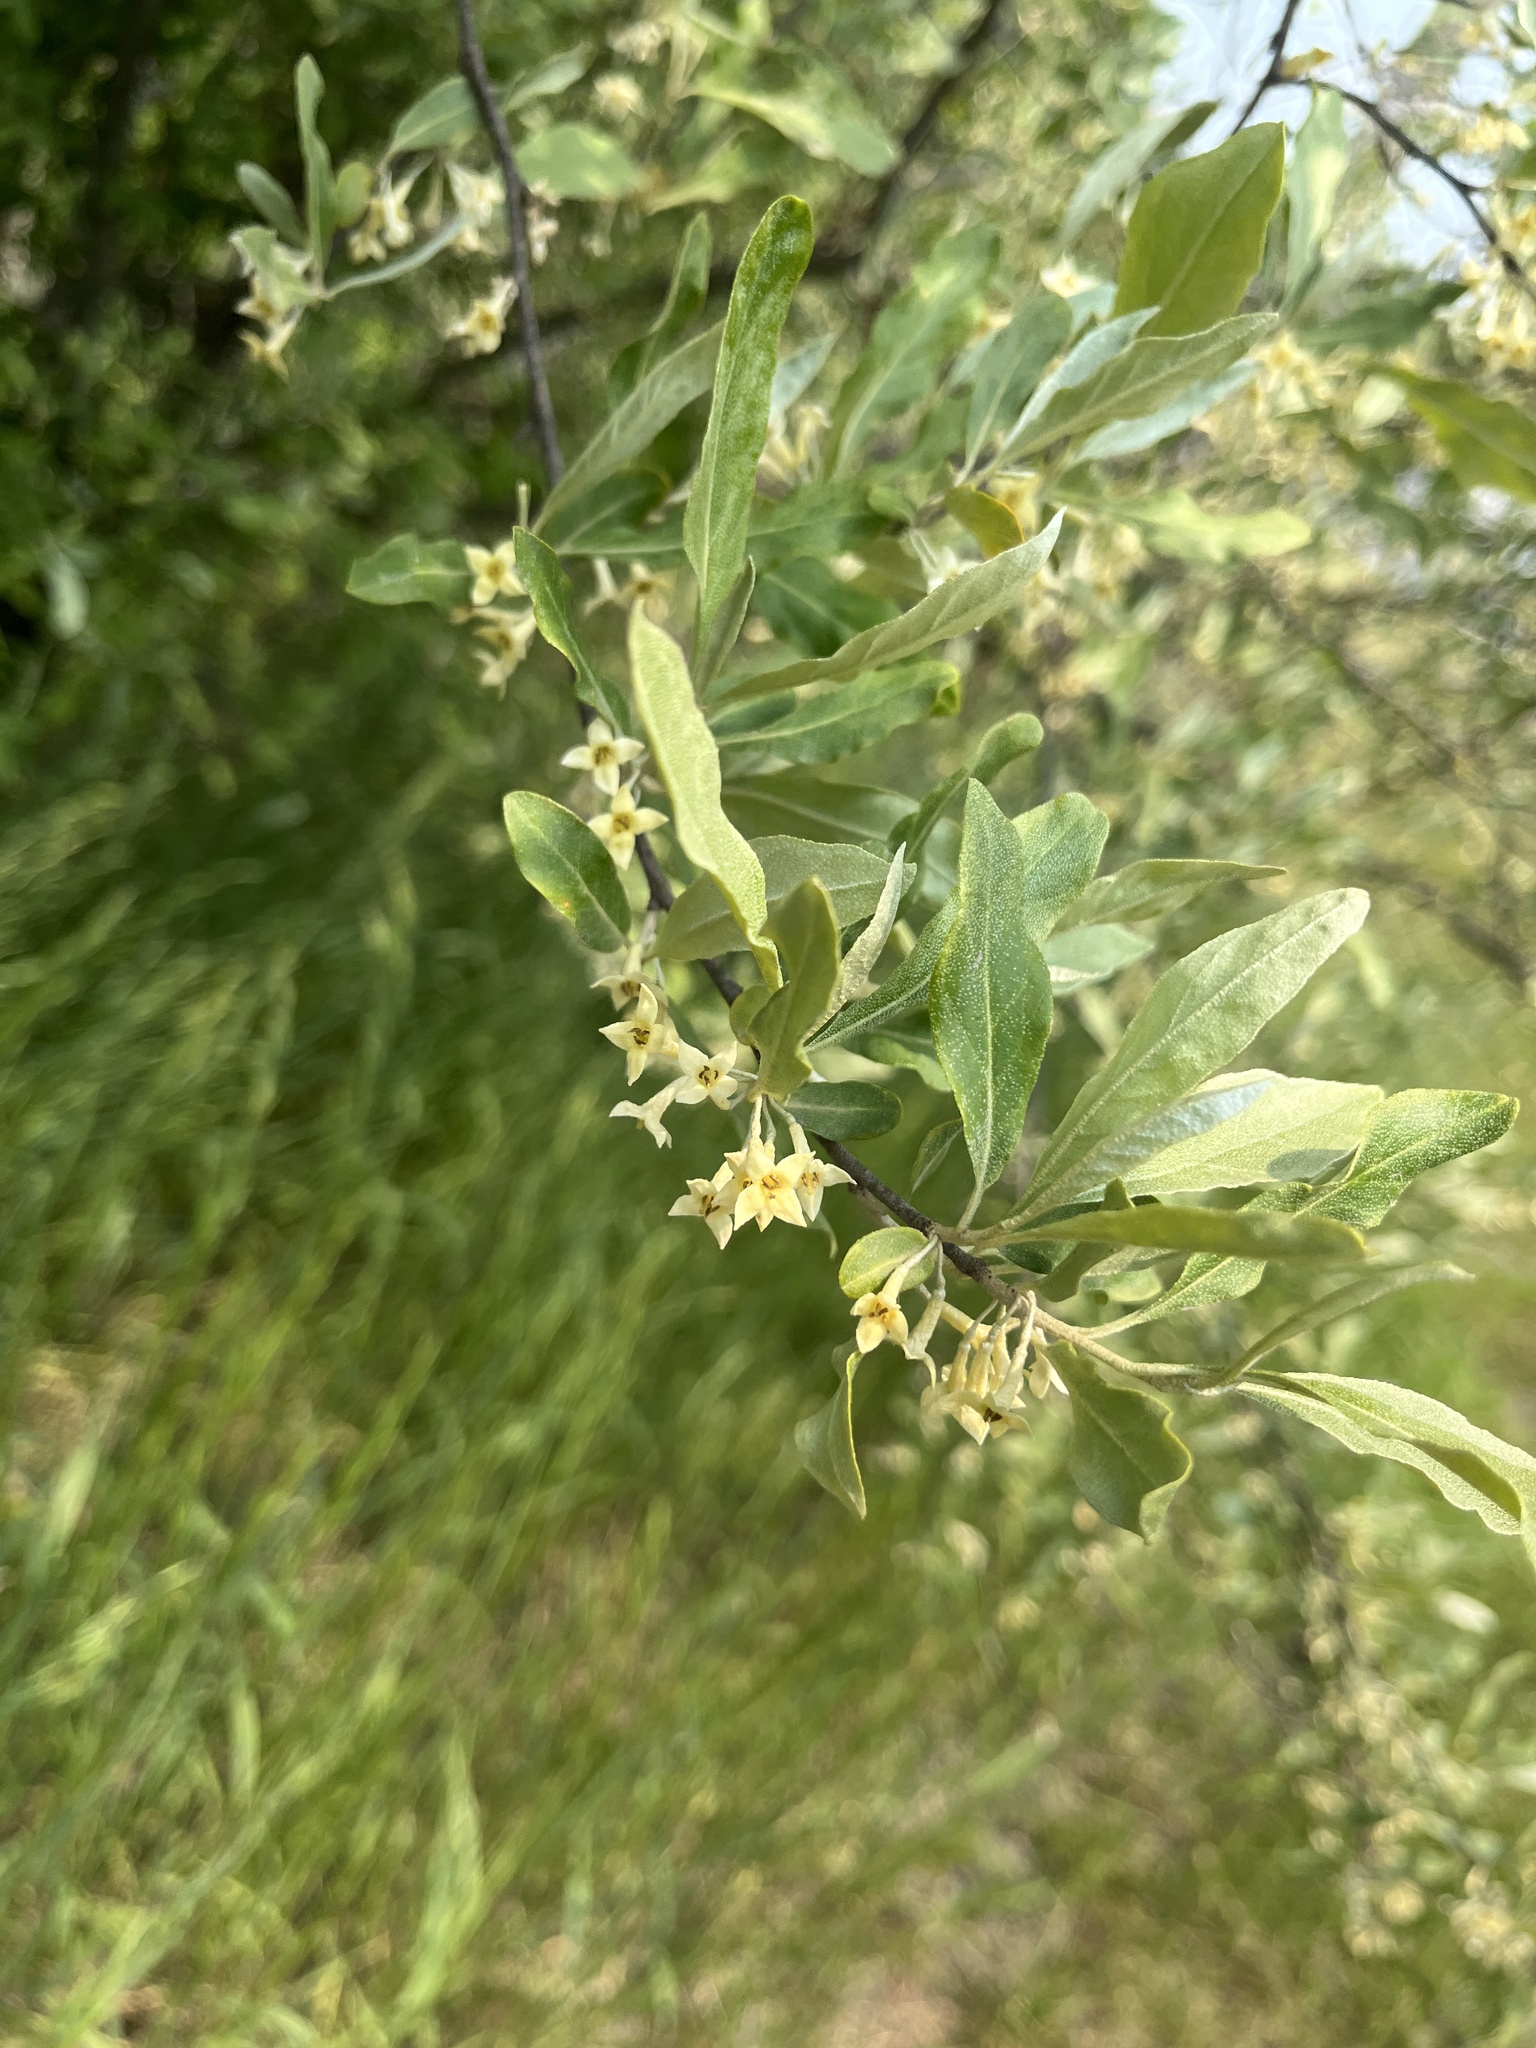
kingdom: Plantae
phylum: Tracheophyta
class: Magnoliopsida
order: Rosales
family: Elaeagnaceae
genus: Elaeagnus
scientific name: Elaeagnus umbellata
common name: Autumn olive
